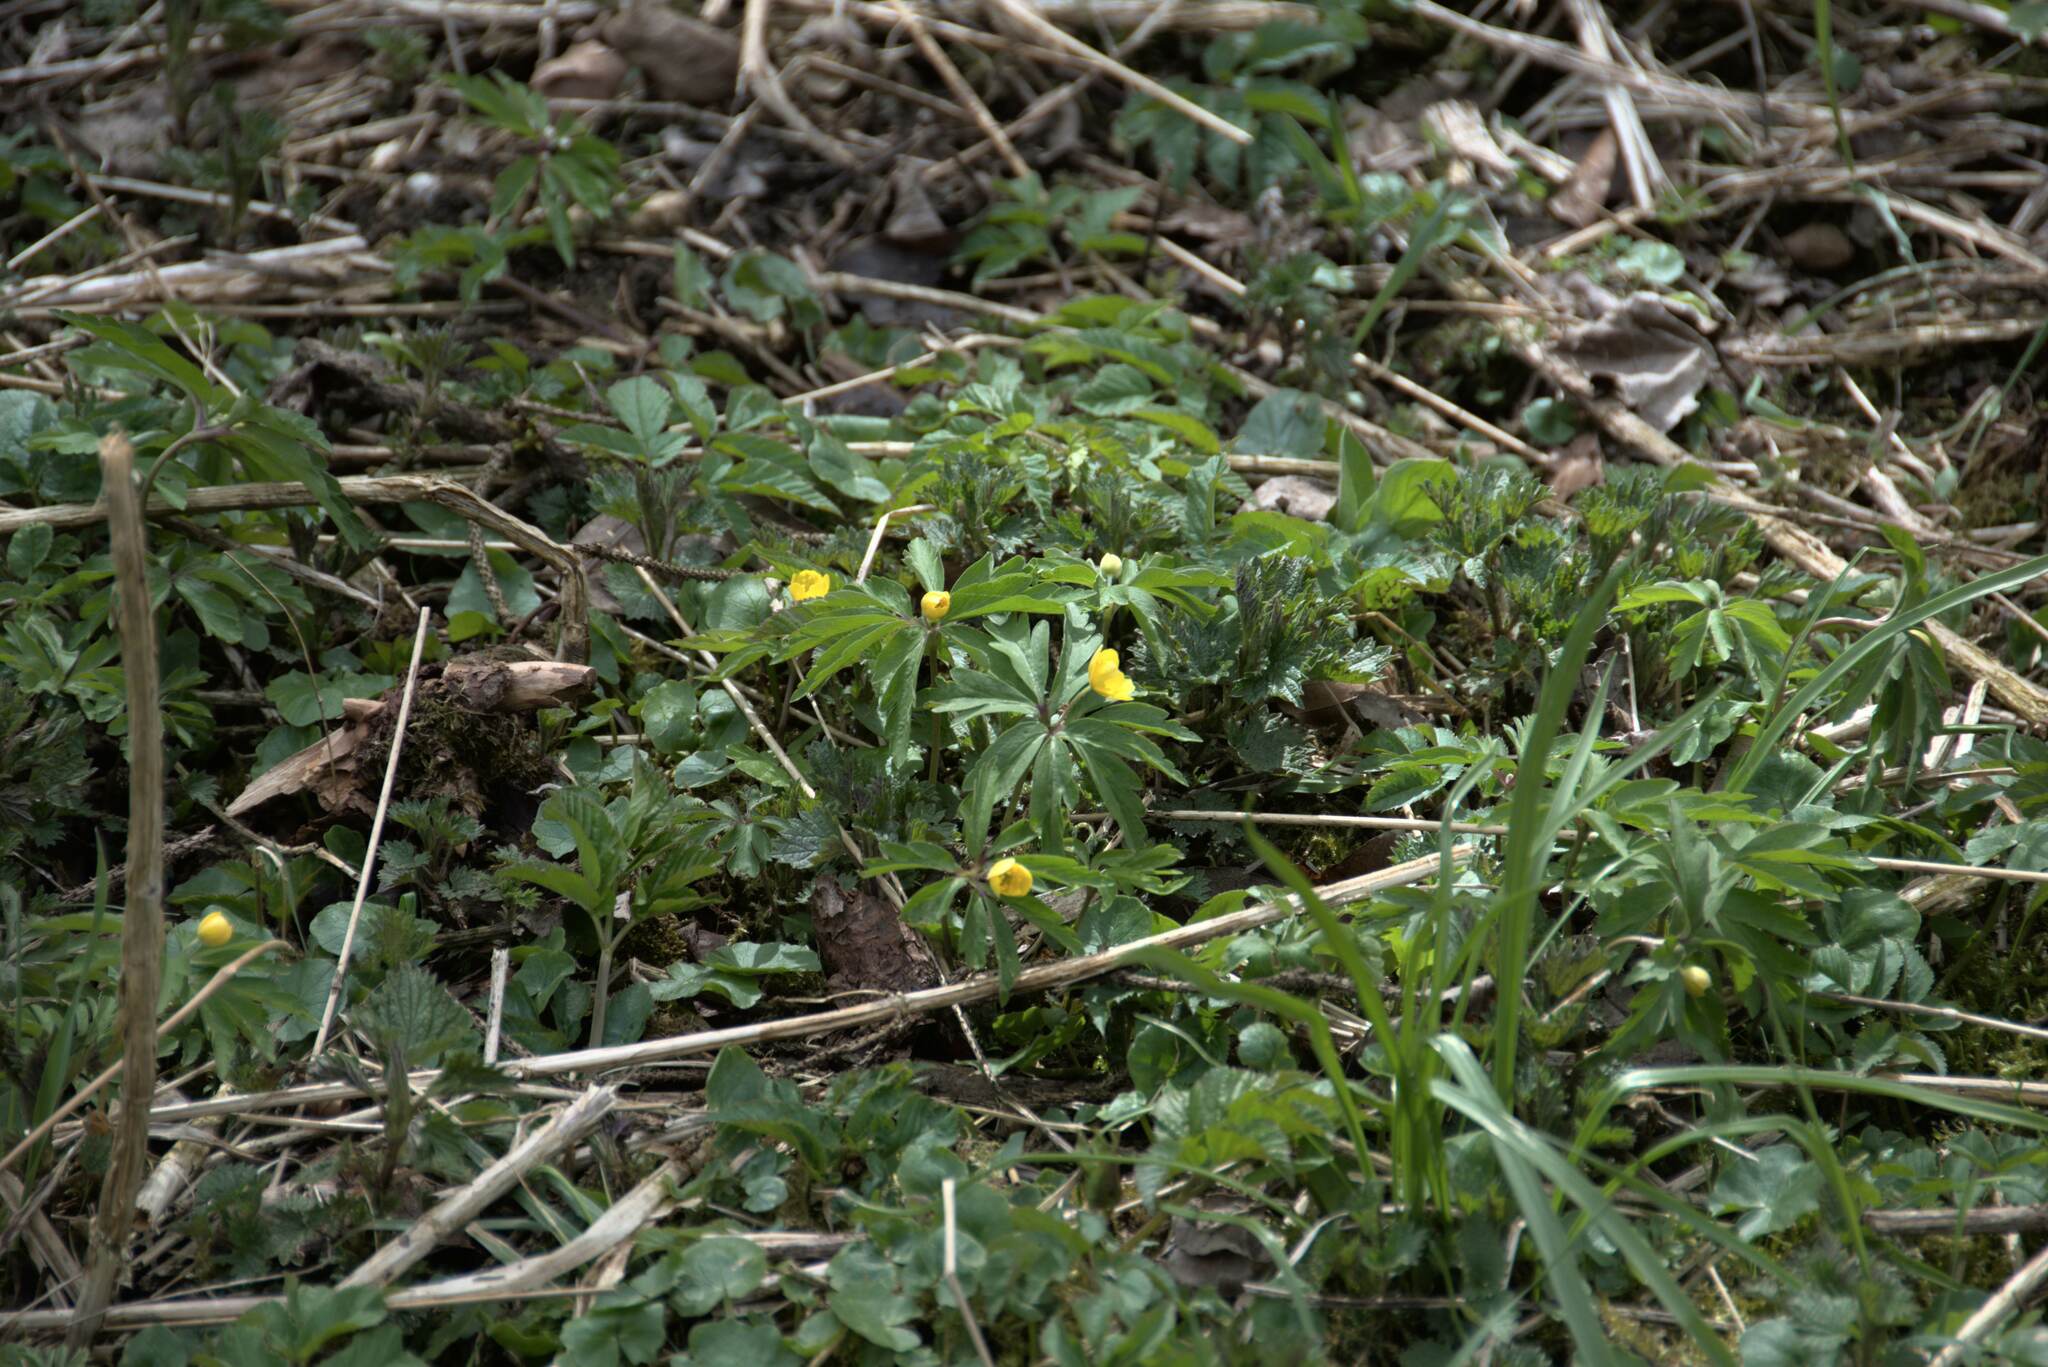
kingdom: Plantae
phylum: Tracheophyta
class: Magnoliopsida
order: Ranunculales
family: Ranunculaceae
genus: Anemone
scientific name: Anemone ranunculoides
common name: Yellow anemone
